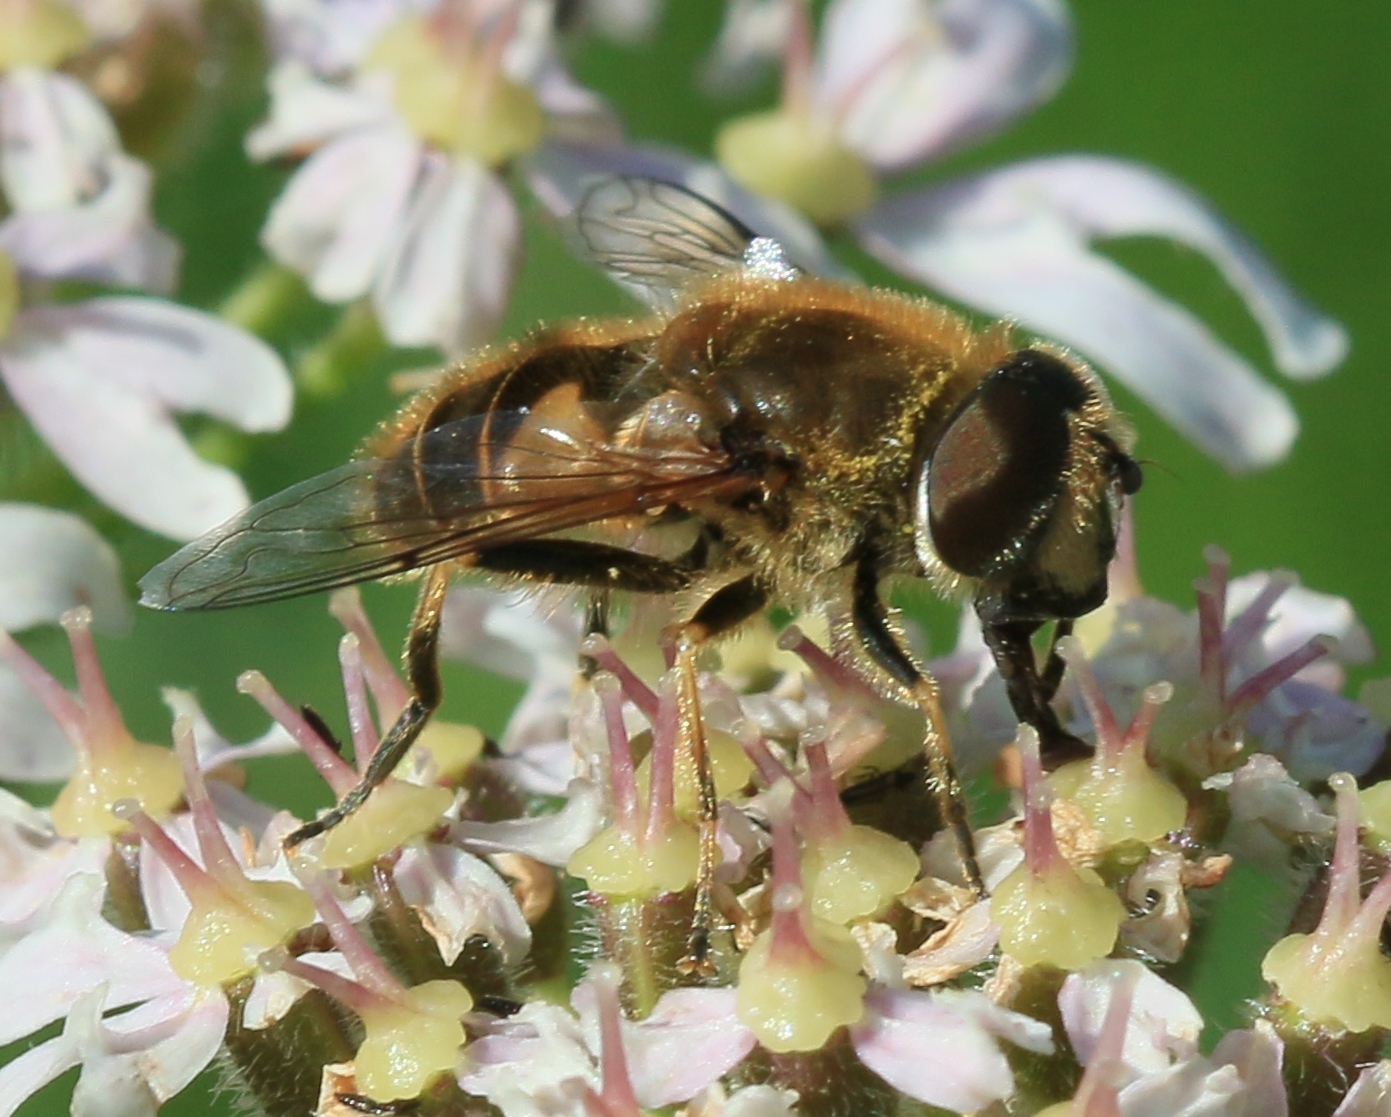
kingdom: Animalia
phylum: Arthropoda
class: Insecta
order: Diptera
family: Syrphidae
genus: Eristalis
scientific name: Eristalis nemorum
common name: Orange-spined drone fly
